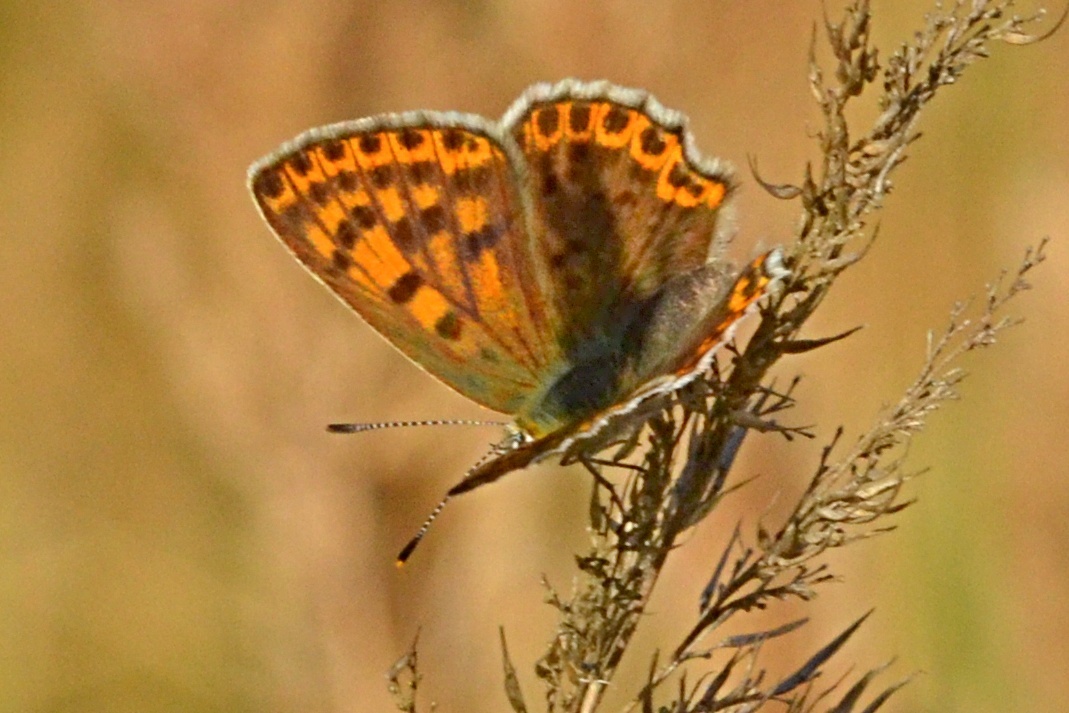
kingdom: Animalia
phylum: Arthropoda
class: Insecta
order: Lepidoptera
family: Lycaenidae
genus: Loweia
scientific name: Loweia tityrus
